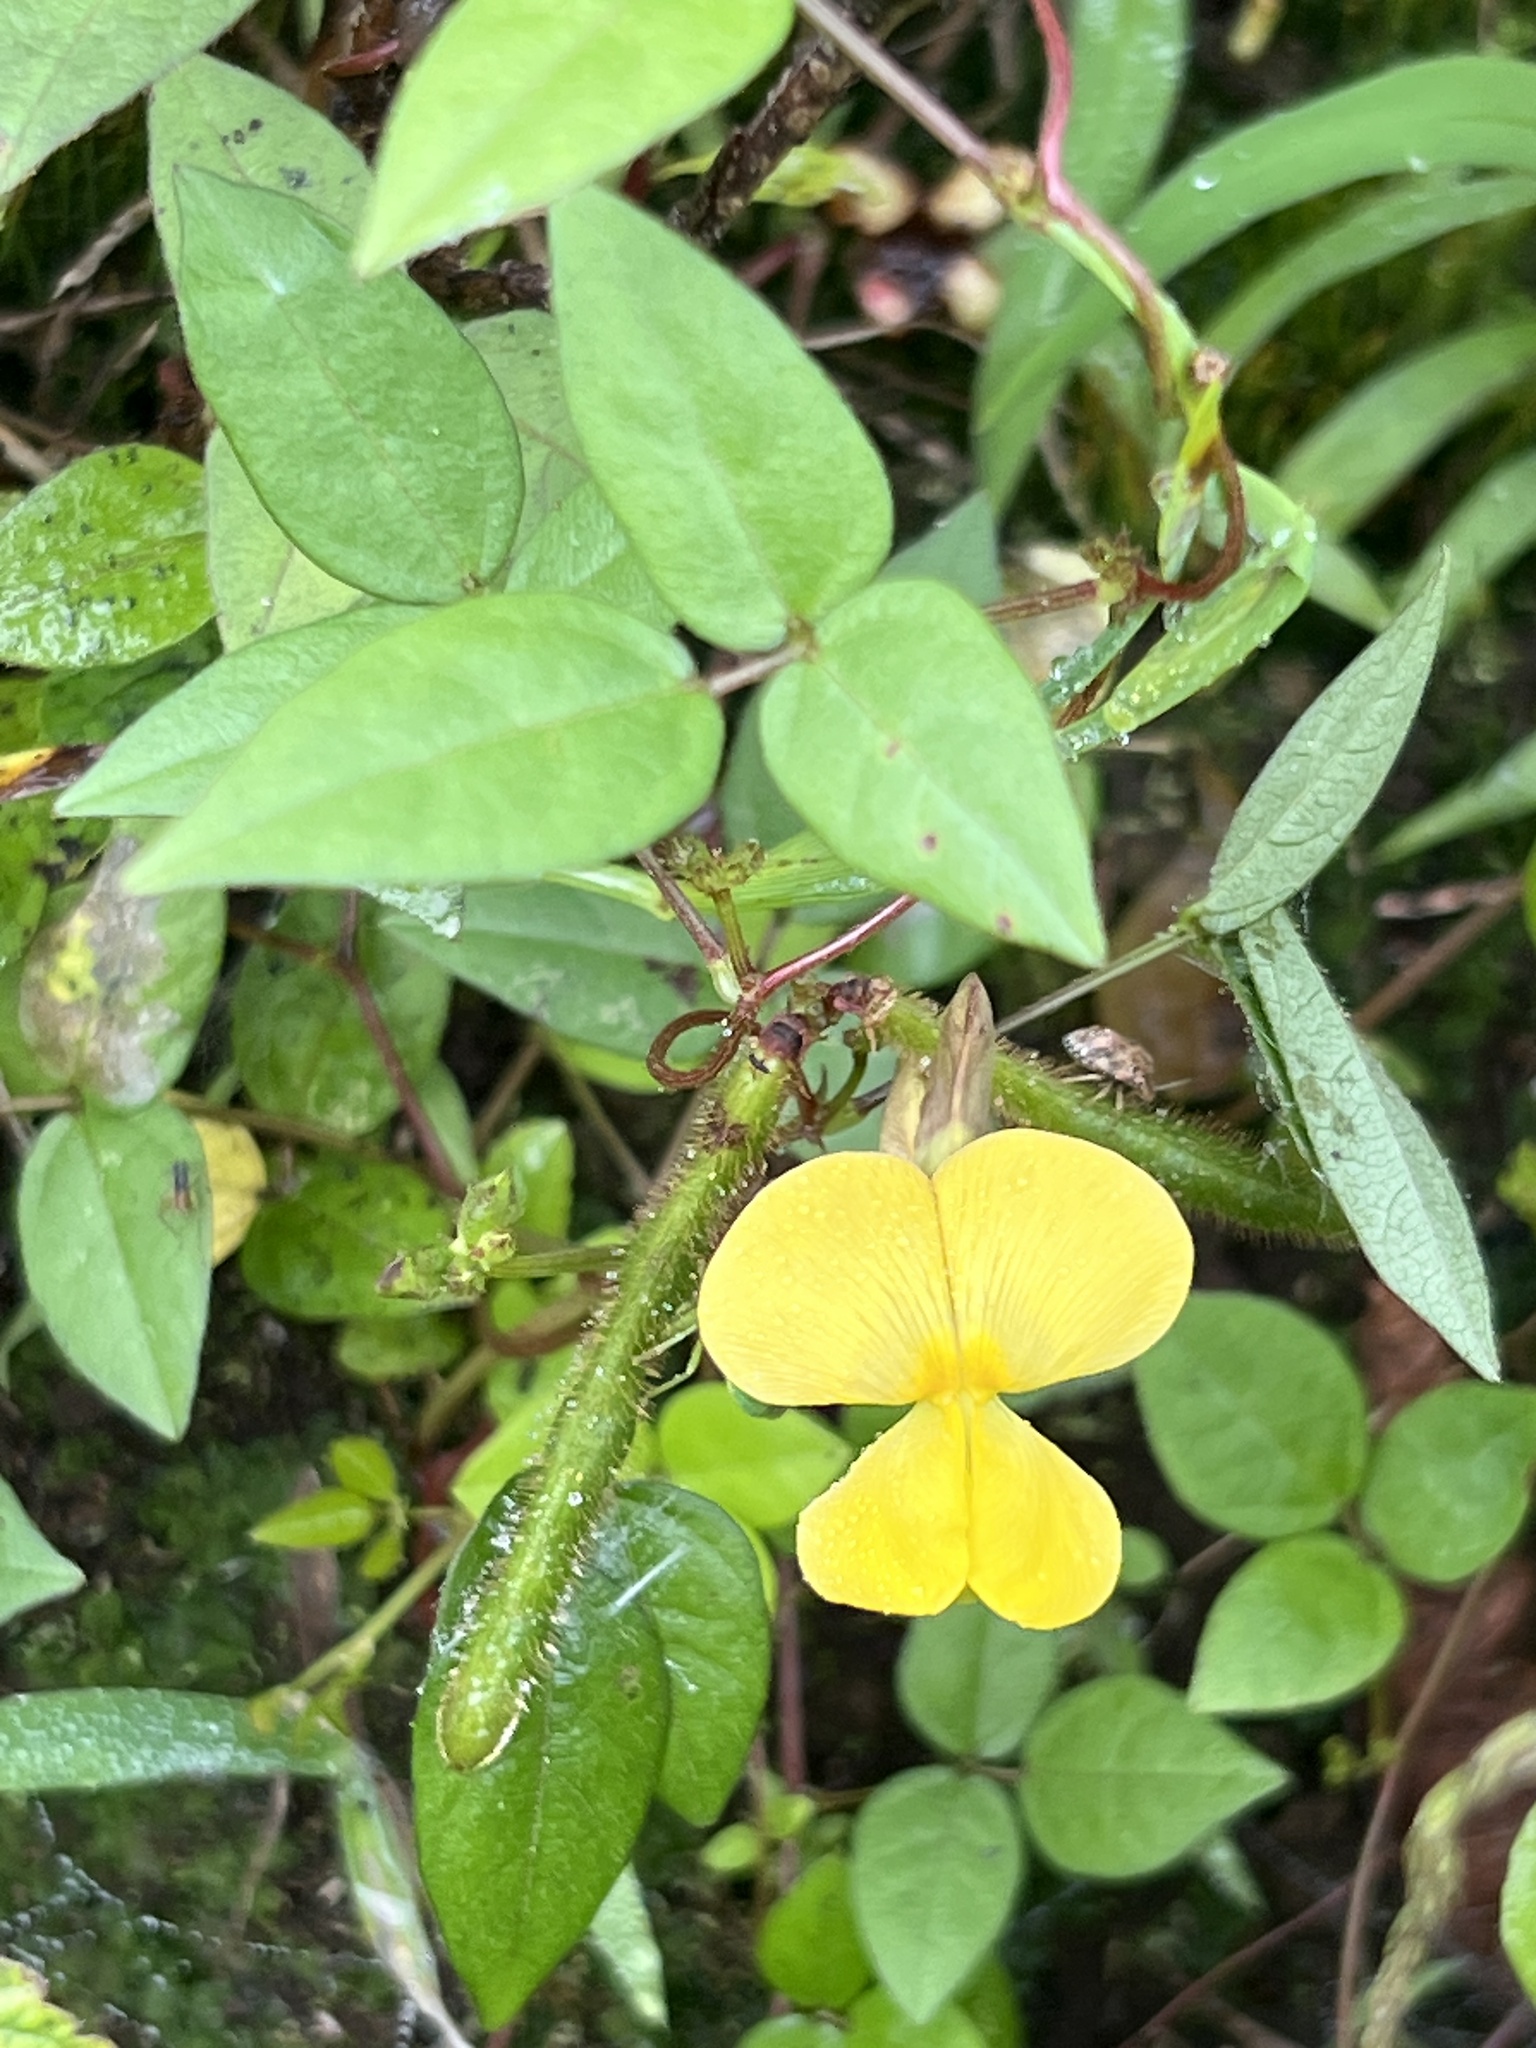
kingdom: Plantae
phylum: Tracheophyta
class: Magnoliopsida
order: Fabales
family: Fabaceae
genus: Vigna
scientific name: Vigna luteola
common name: Hairypod cowpea
